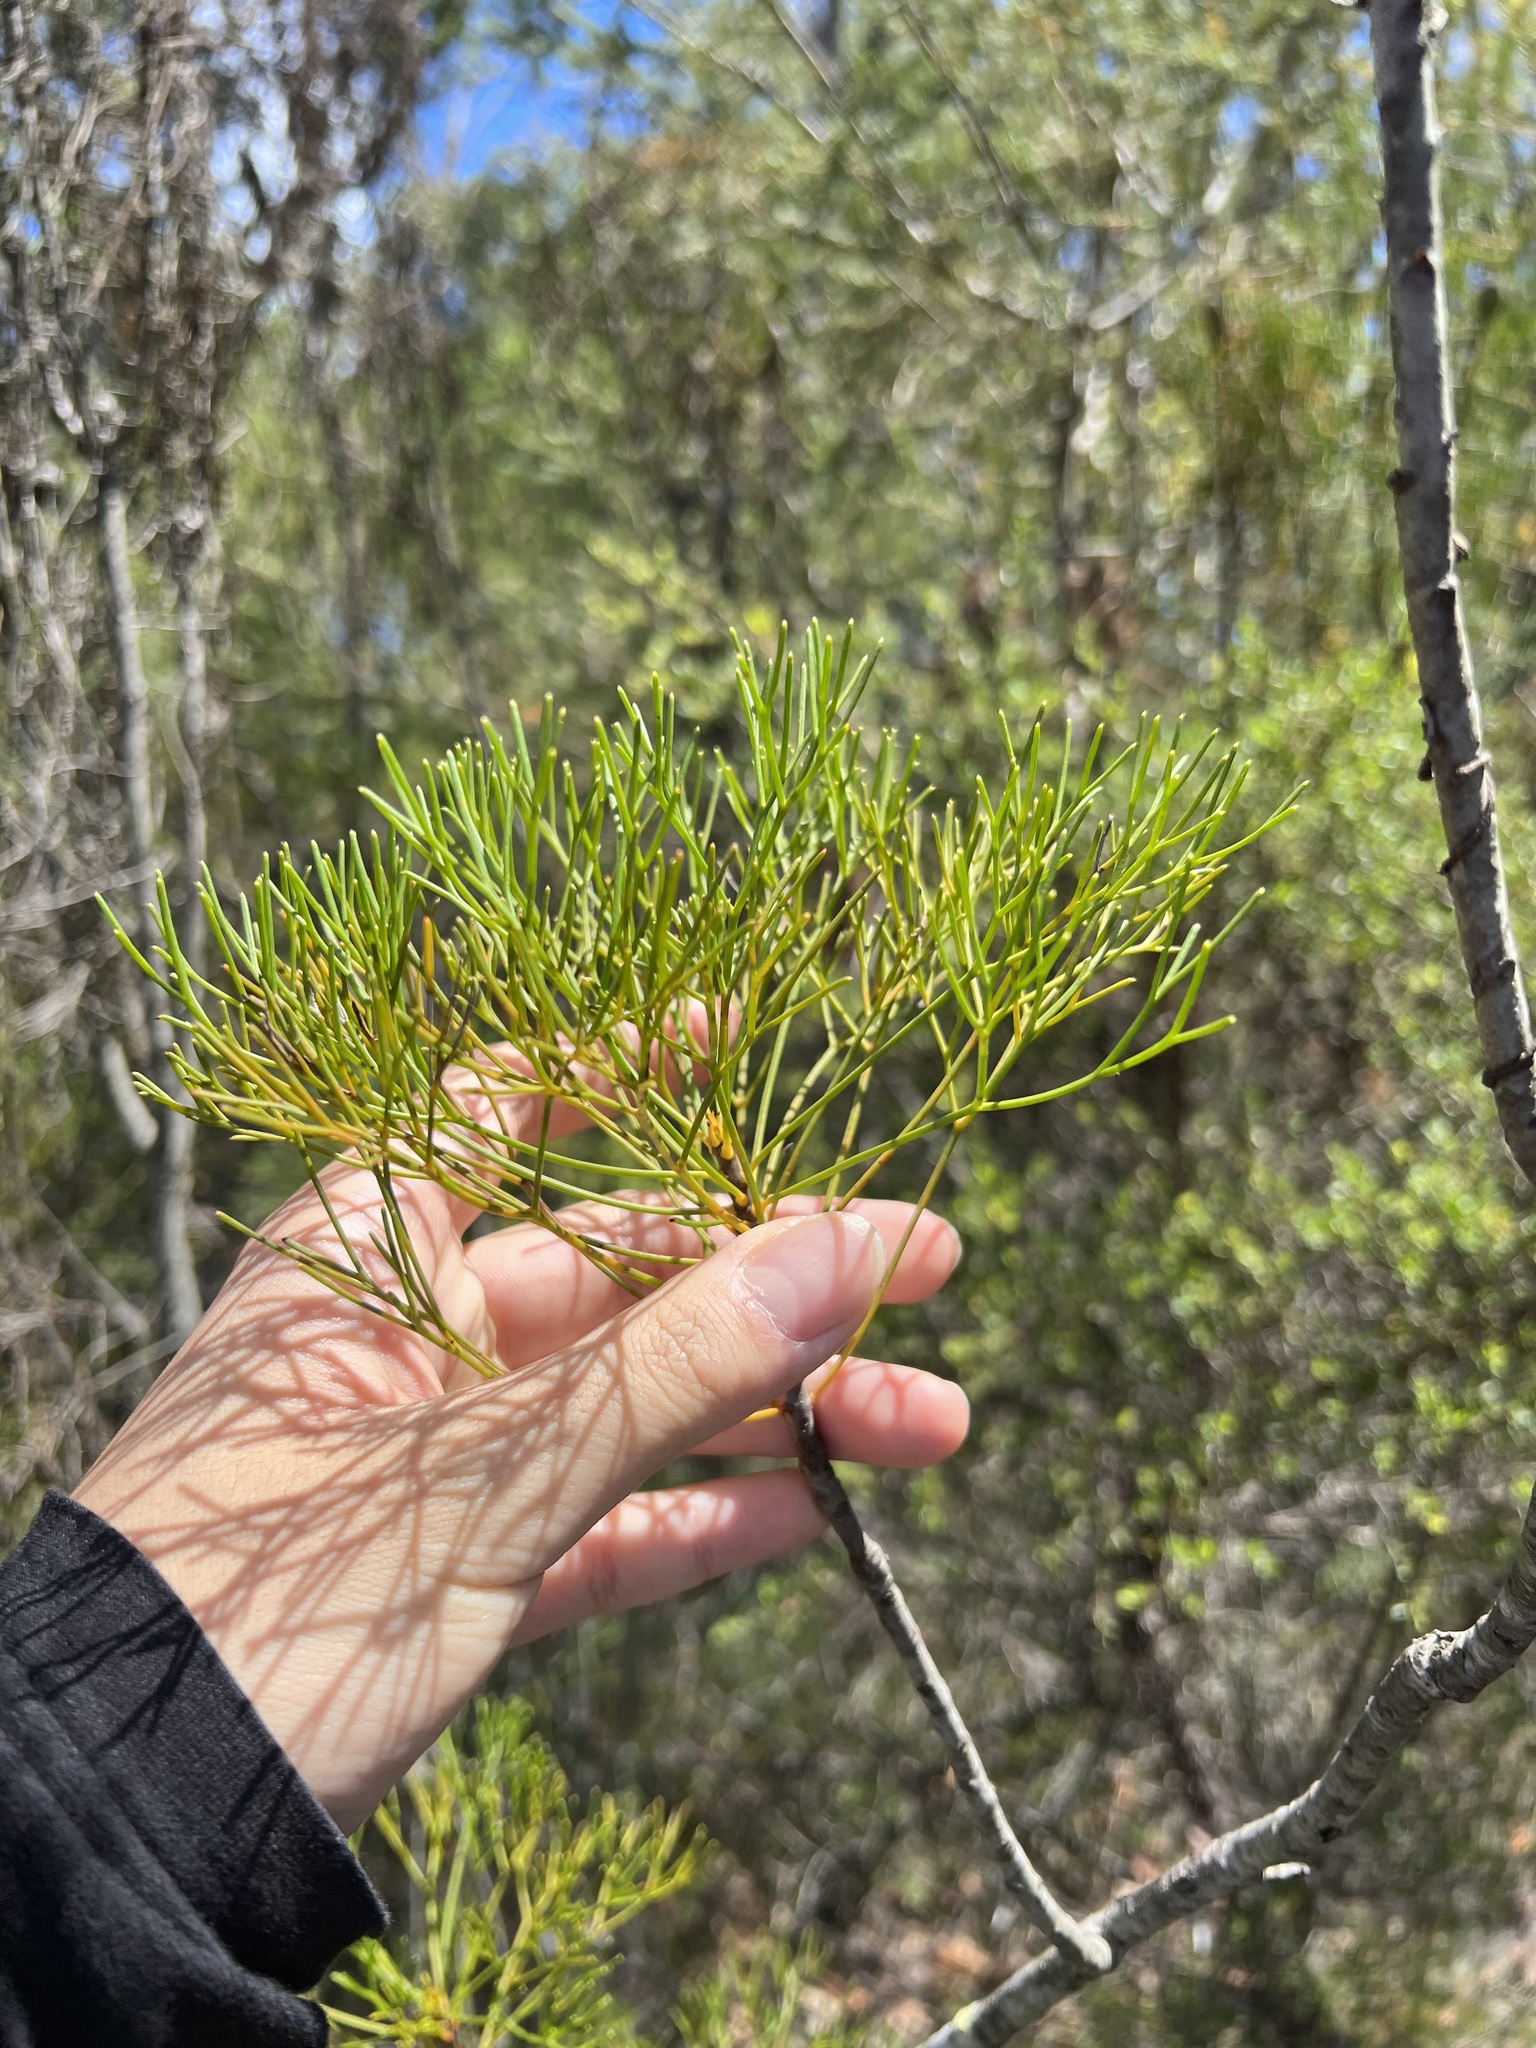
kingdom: Plantae
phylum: Tracheophyta
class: Magnoliopsida
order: Proteales
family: Proteaceae
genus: Petrophile
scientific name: Petrophile pulchella
